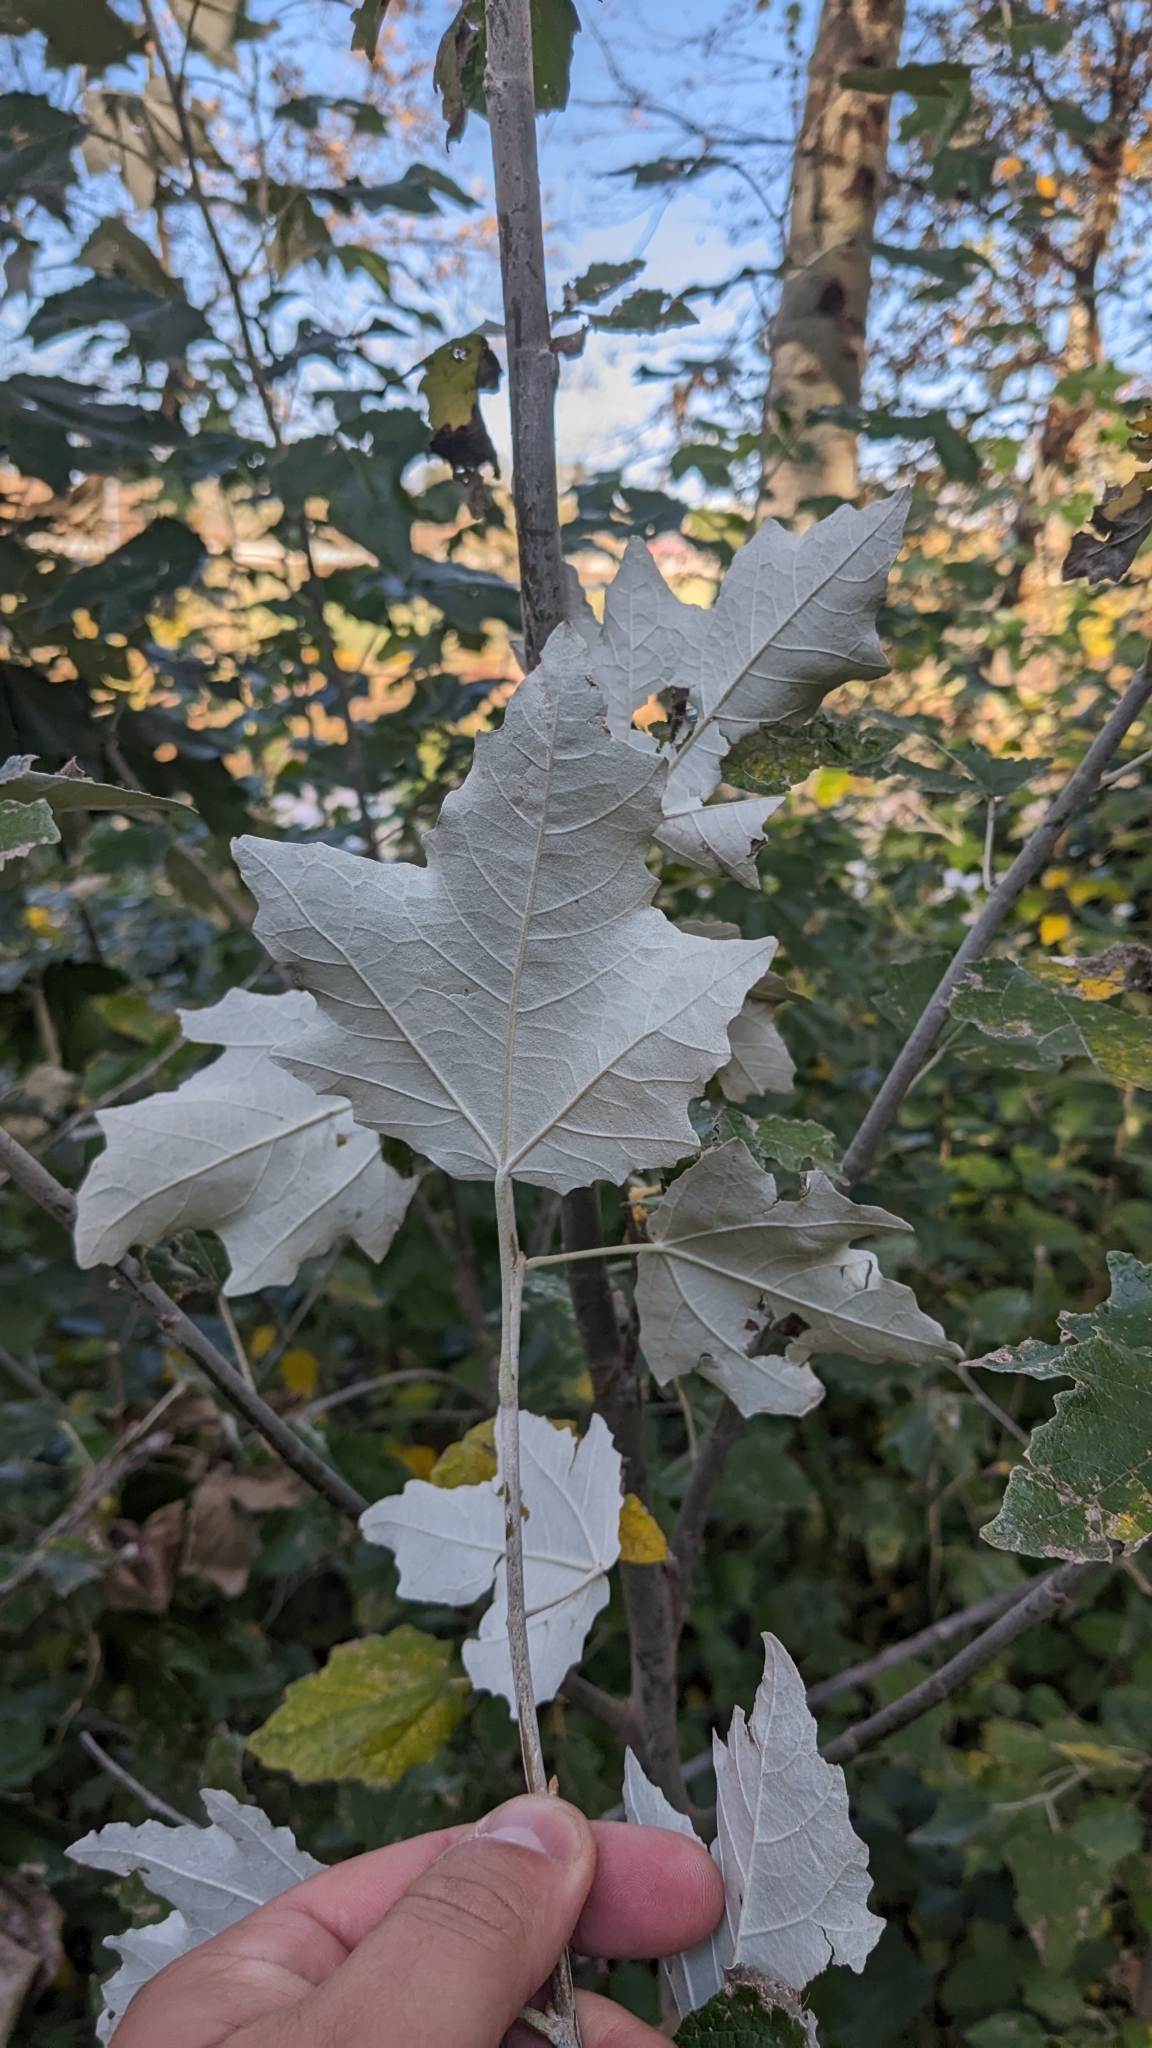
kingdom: Plantae
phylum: Tracheophyta
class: Magnoliopsida
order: Malpighiales
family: Salicaceae
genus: Populus
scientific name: Populus alba
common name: White poplar
